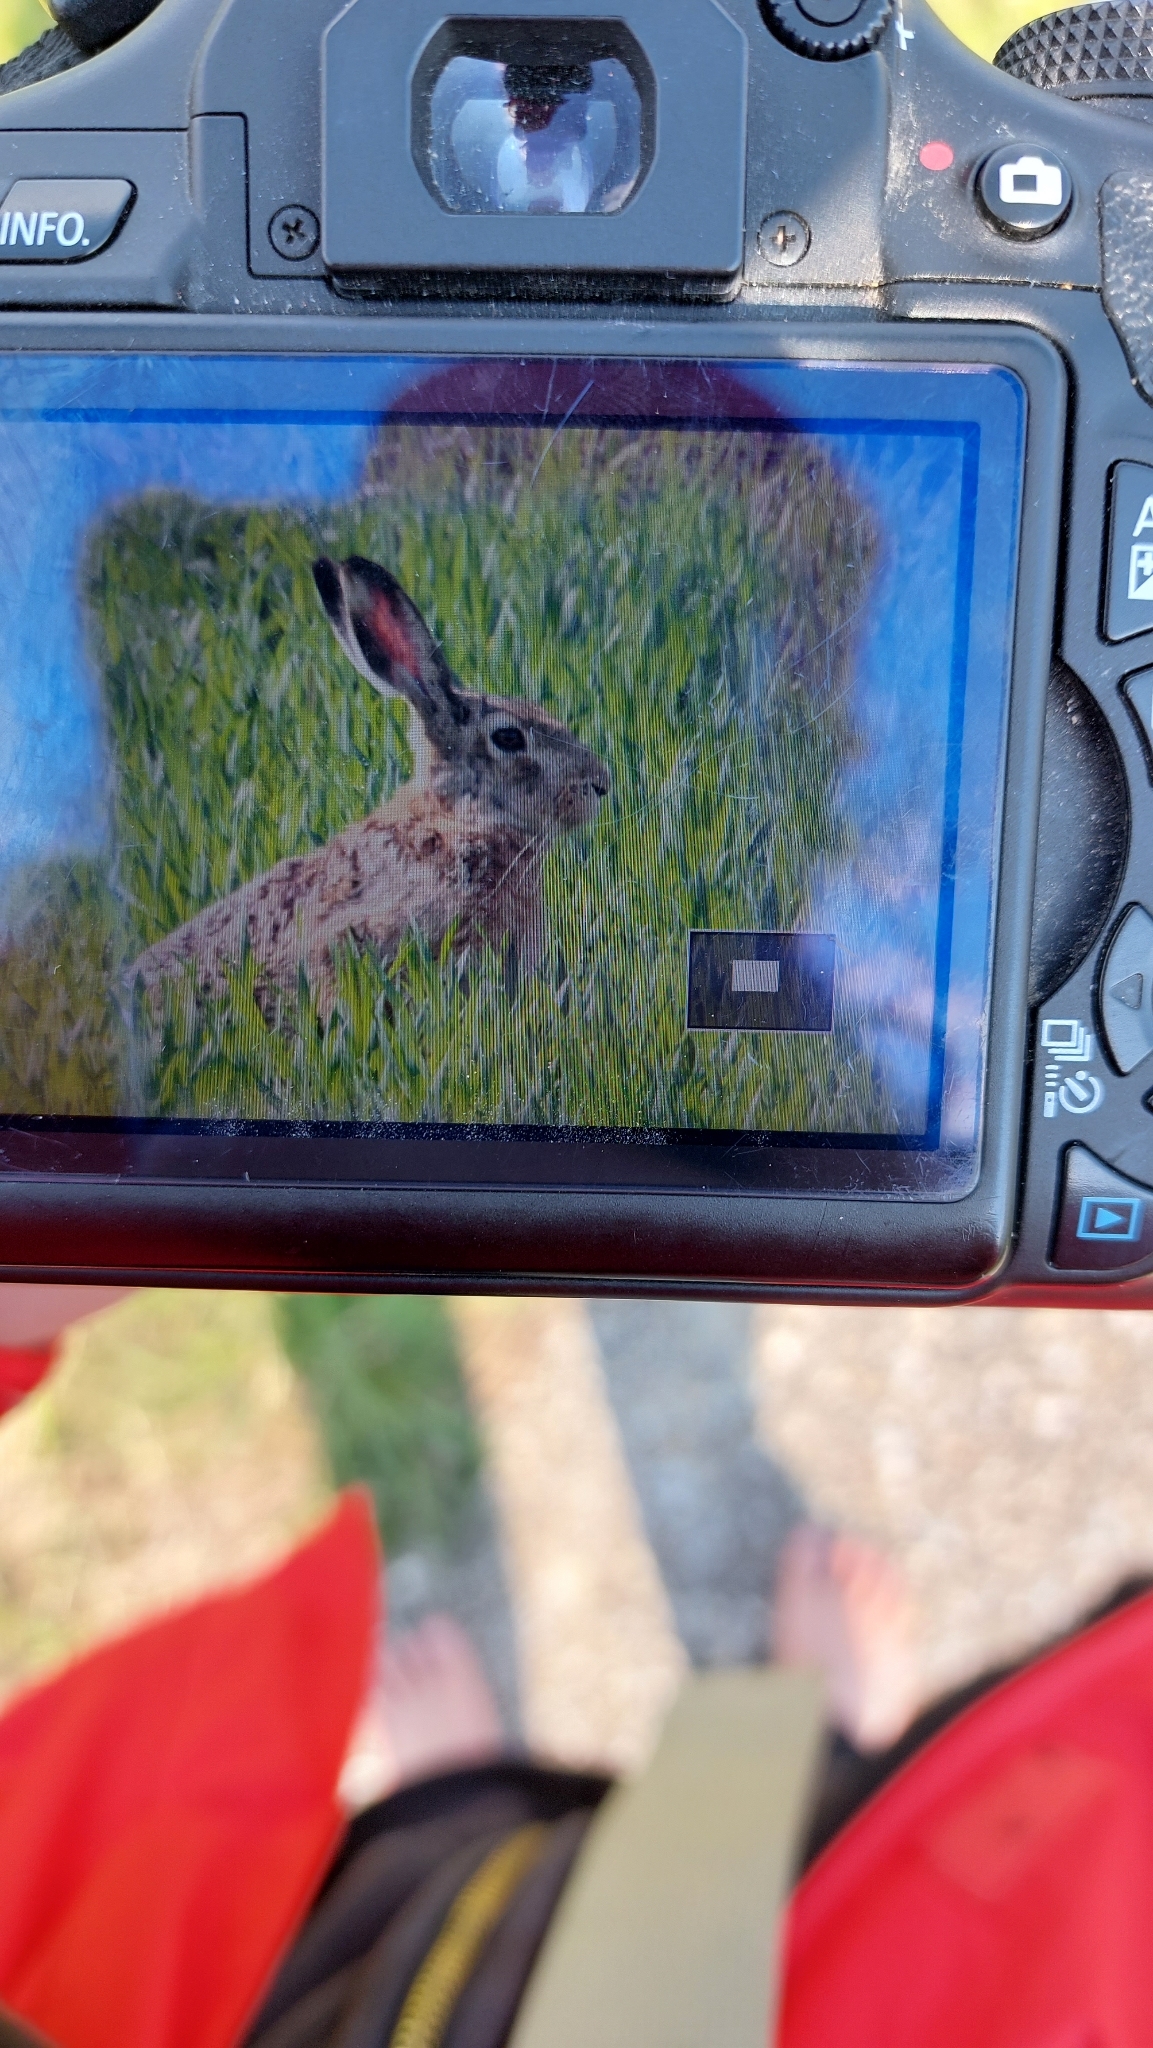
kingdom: Animalia
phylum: Chordata
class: Mammalia
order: Lagomorpha
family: Leporidae
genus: Lepus
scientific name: Lepus europaeus
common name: European hare
